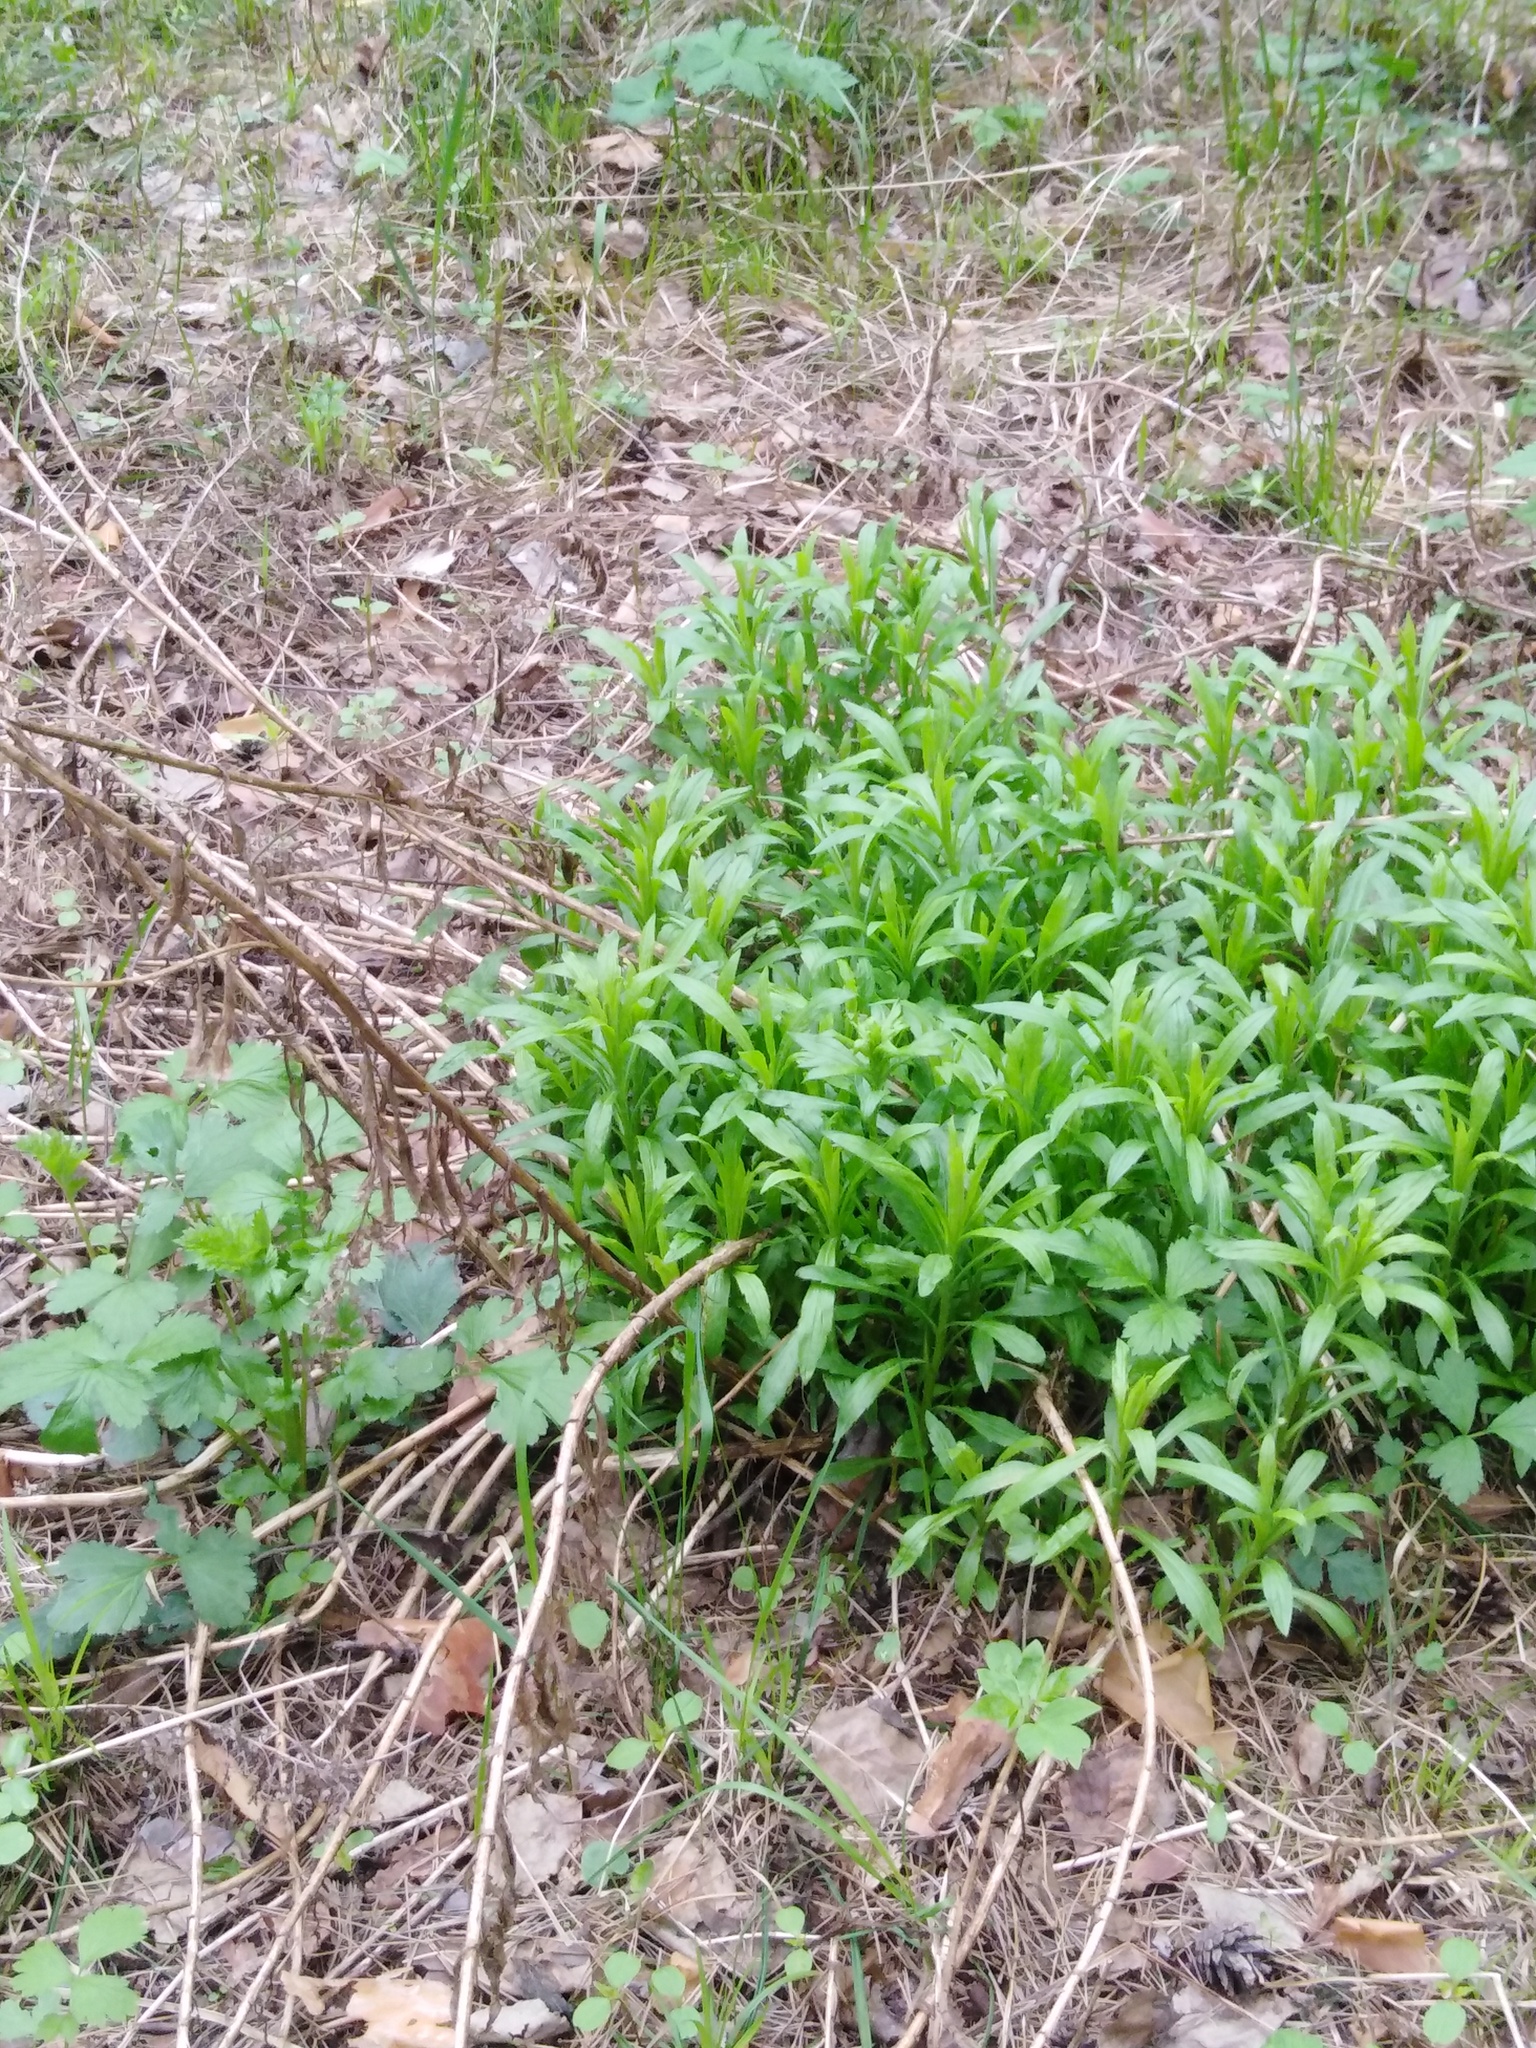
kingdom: Plantae
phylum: Tracheophyta
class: Magnoliopsida
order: Asterales
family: Asteraceae
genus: Solidago
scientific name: Solidago canadensis
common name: Canada goldenrod
